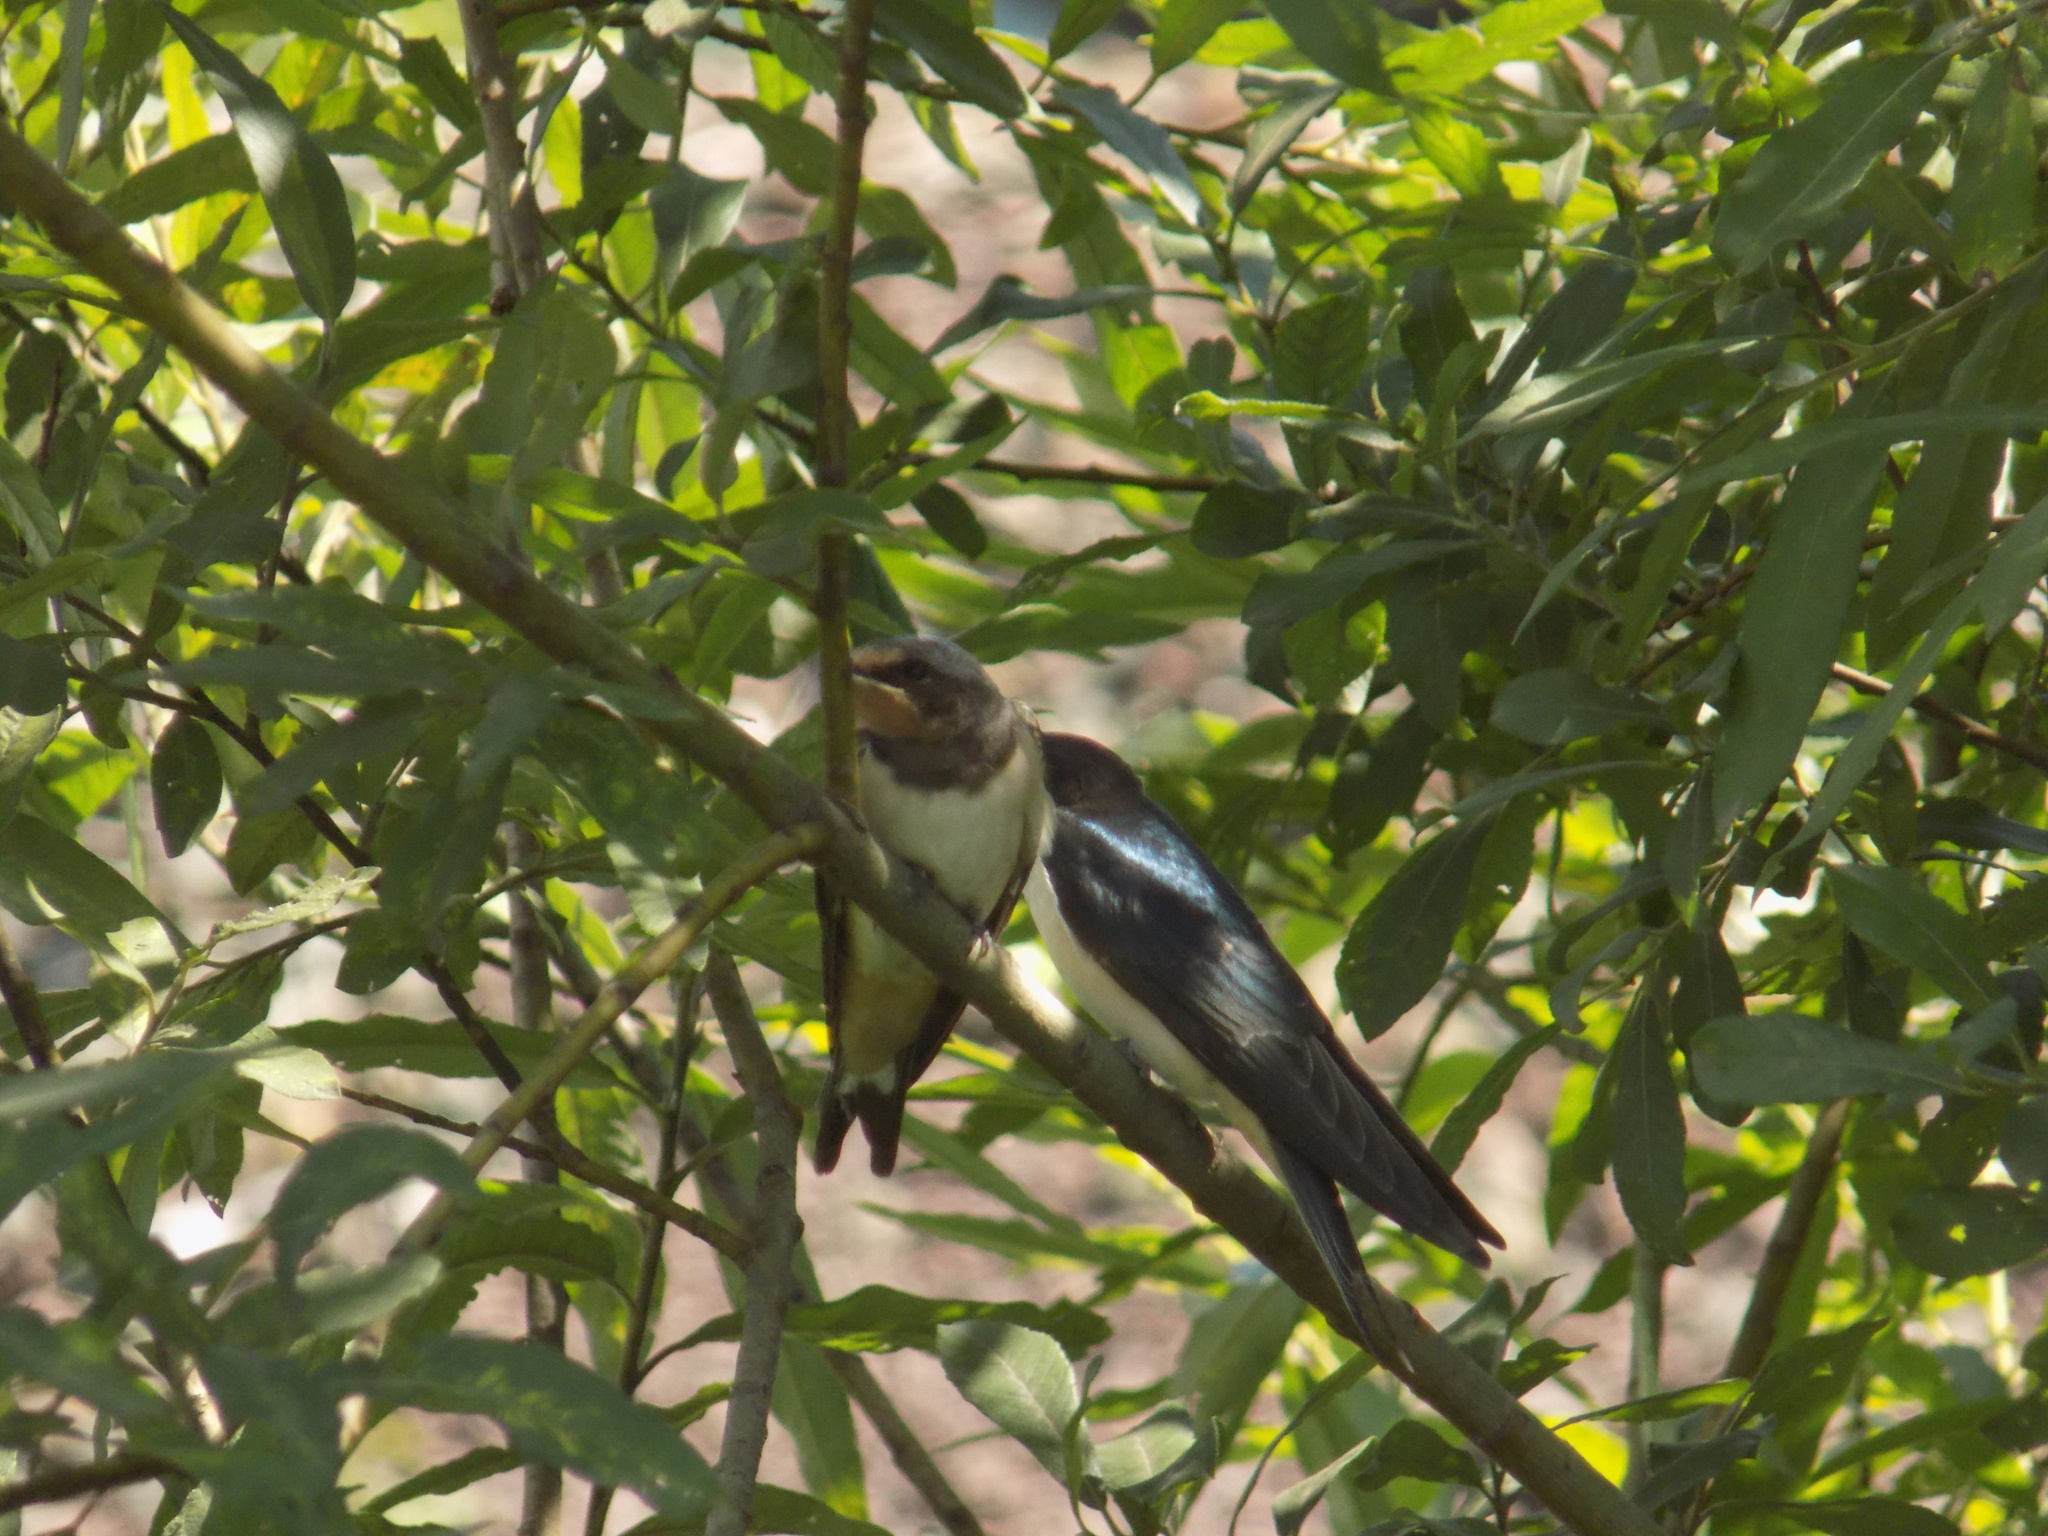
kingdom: Animalia
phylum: Chordata
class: Aves
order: Passeriformes
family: Hirundinidae
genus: Hirundo
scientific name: Hirundo rustica
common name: Barn swallow
